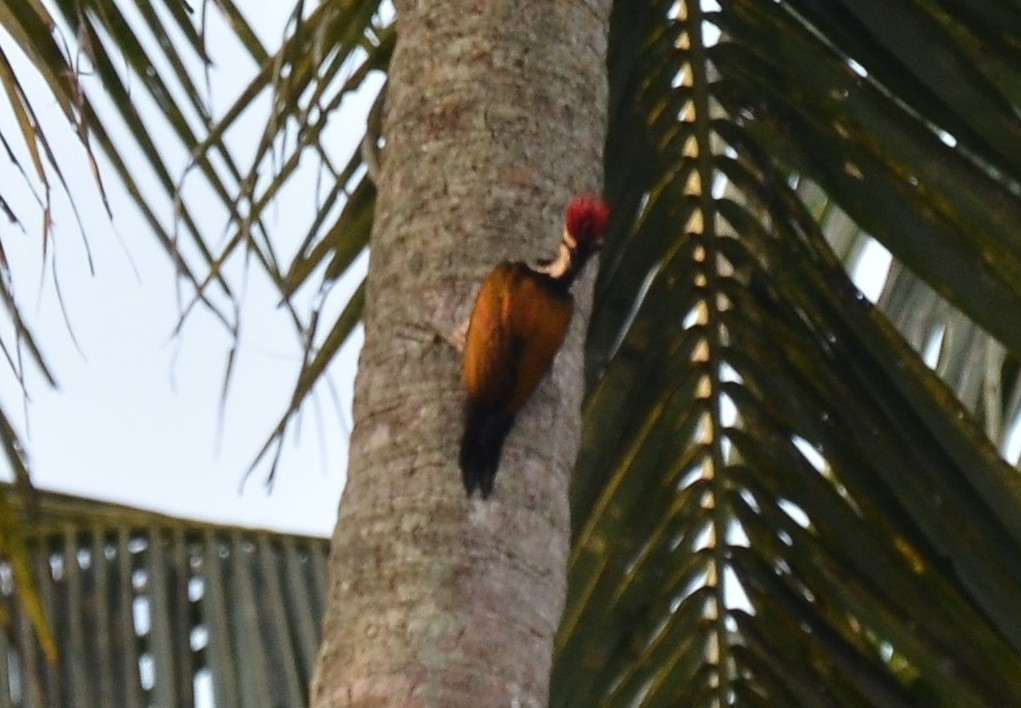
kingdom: Animalia
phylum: Chordata
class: Aves
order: Piciformes
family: Picidae
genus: Dinopium
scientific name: Dinopium benghalense
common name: Black-rumped flameback
